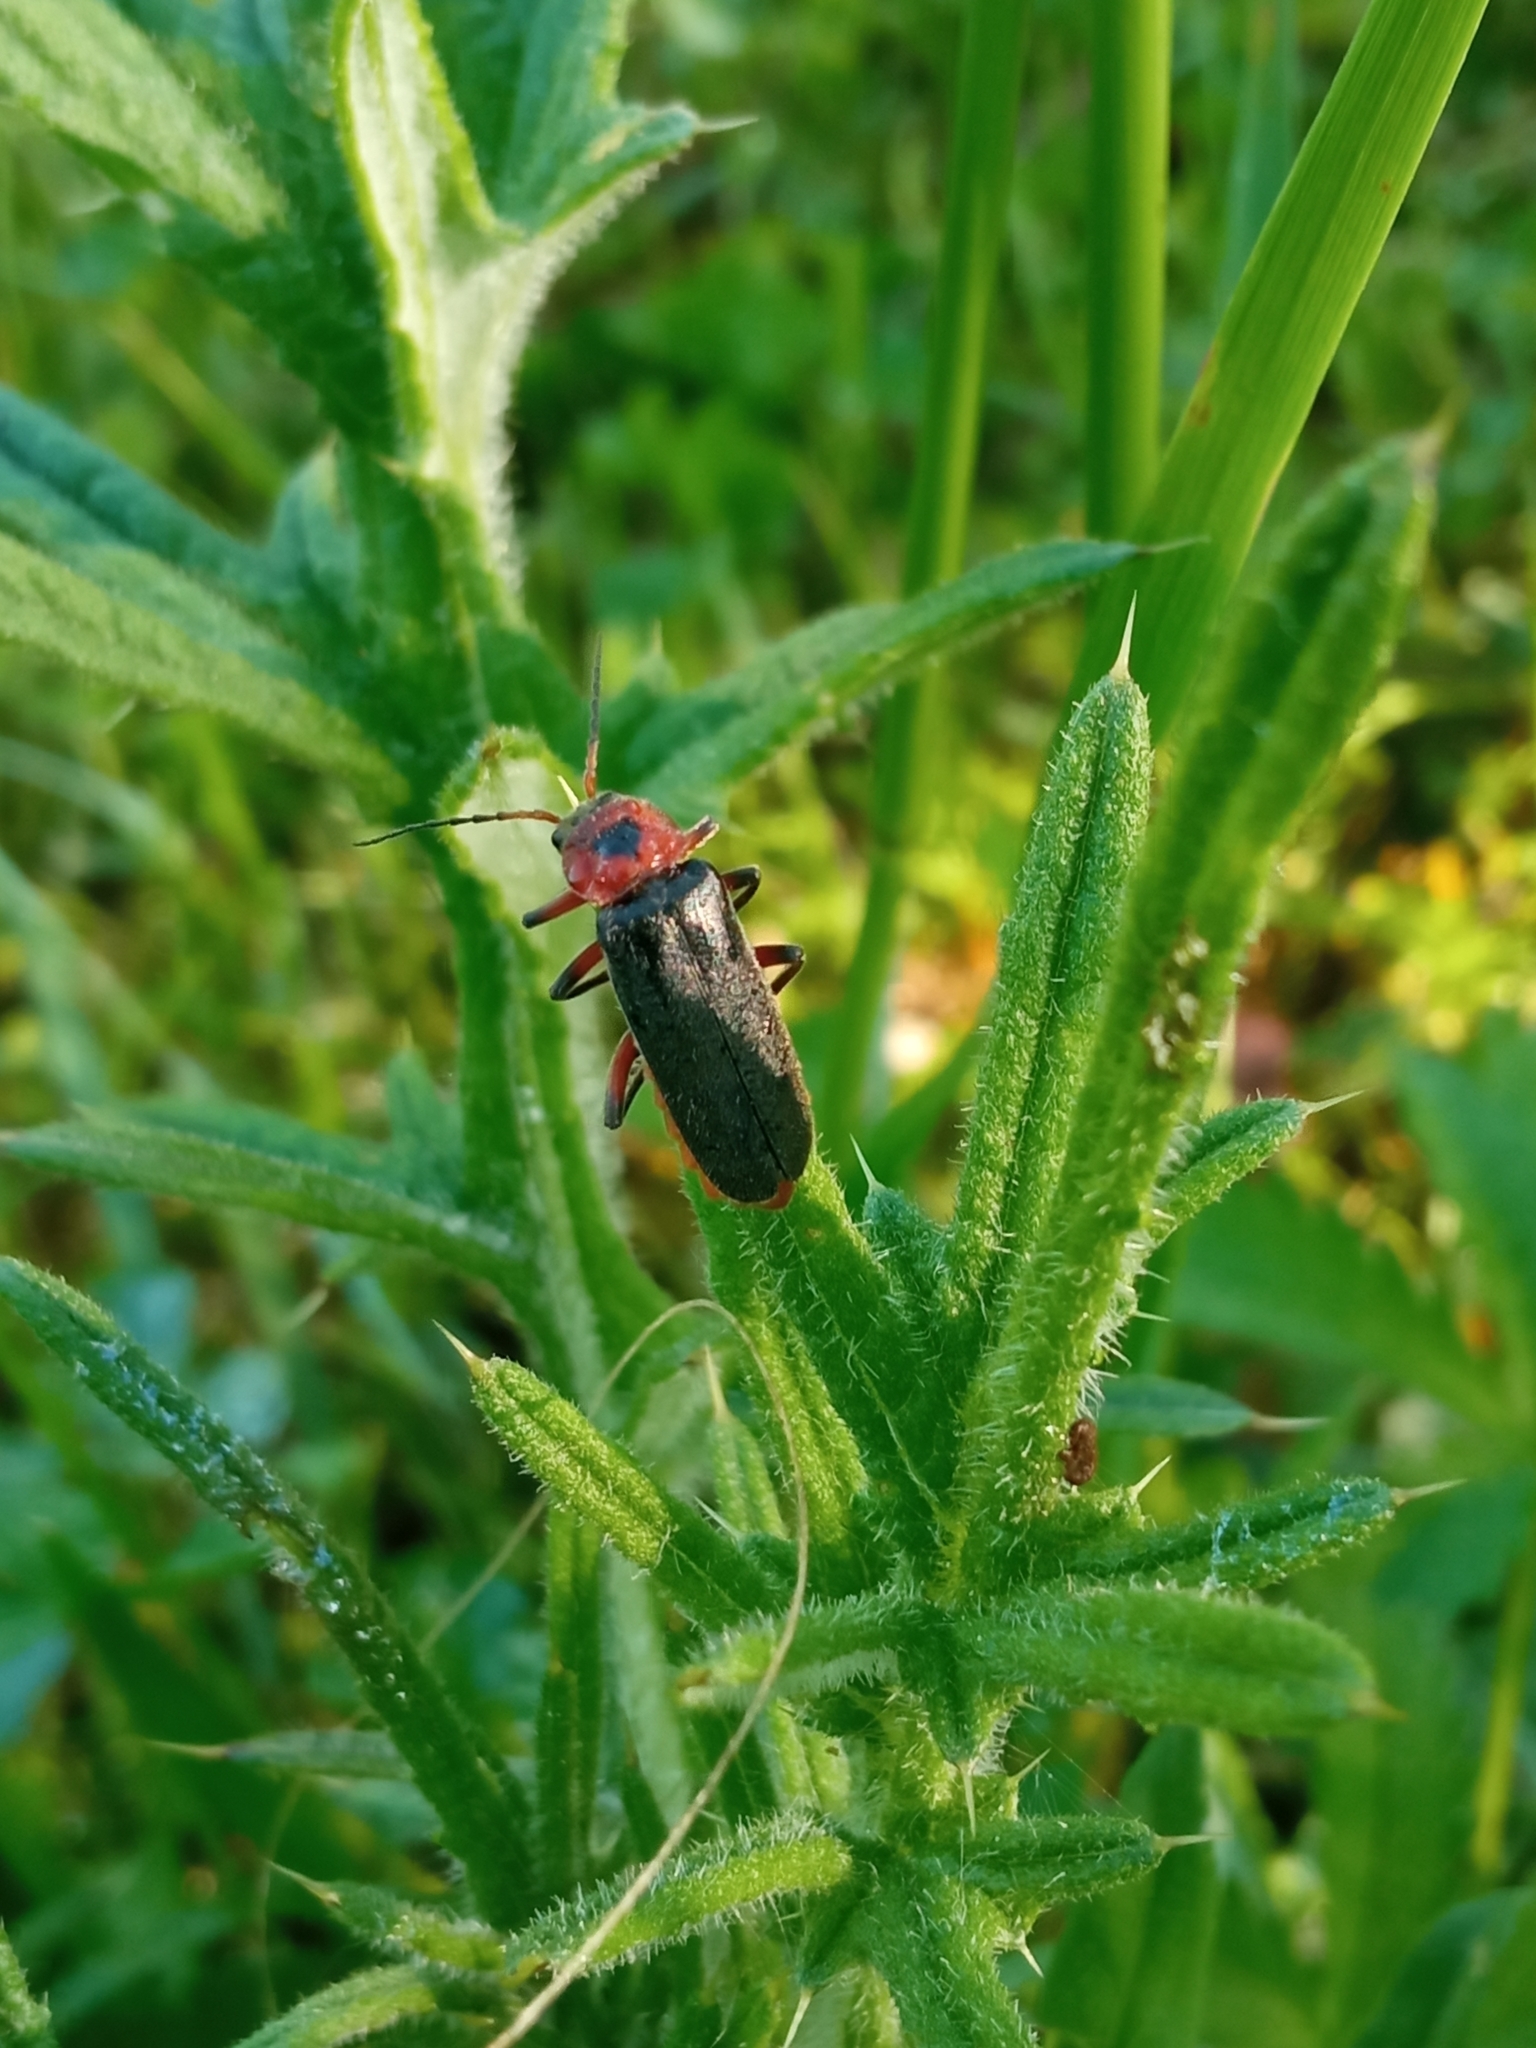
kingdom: Animalia
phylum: Arthropoda
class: Insecta
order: Coleoptera
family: Cantharidae
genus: Cantharis
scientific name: Cantharis rustica
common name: Soldier beetle
